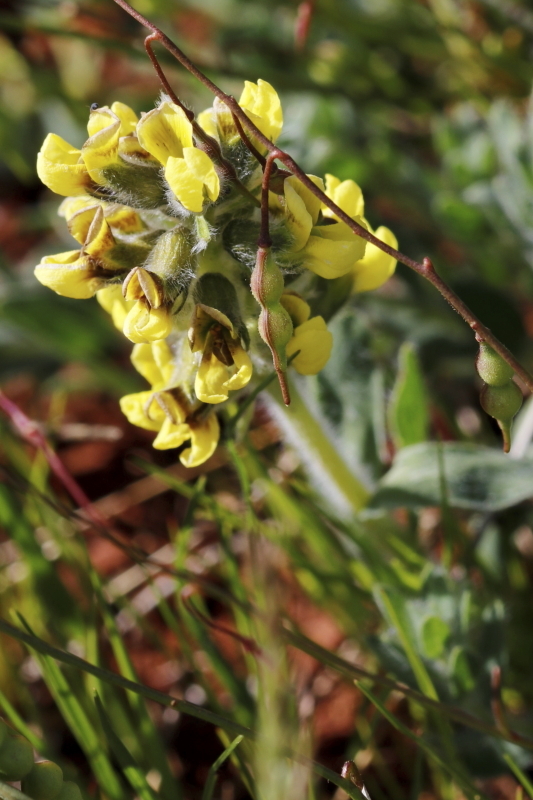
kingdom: Plantae
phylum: Tracheophyta
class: Magnoliopsida
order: Fabales
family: Fabaceae
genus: Euchlora
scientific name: Euchlora hirsuta
